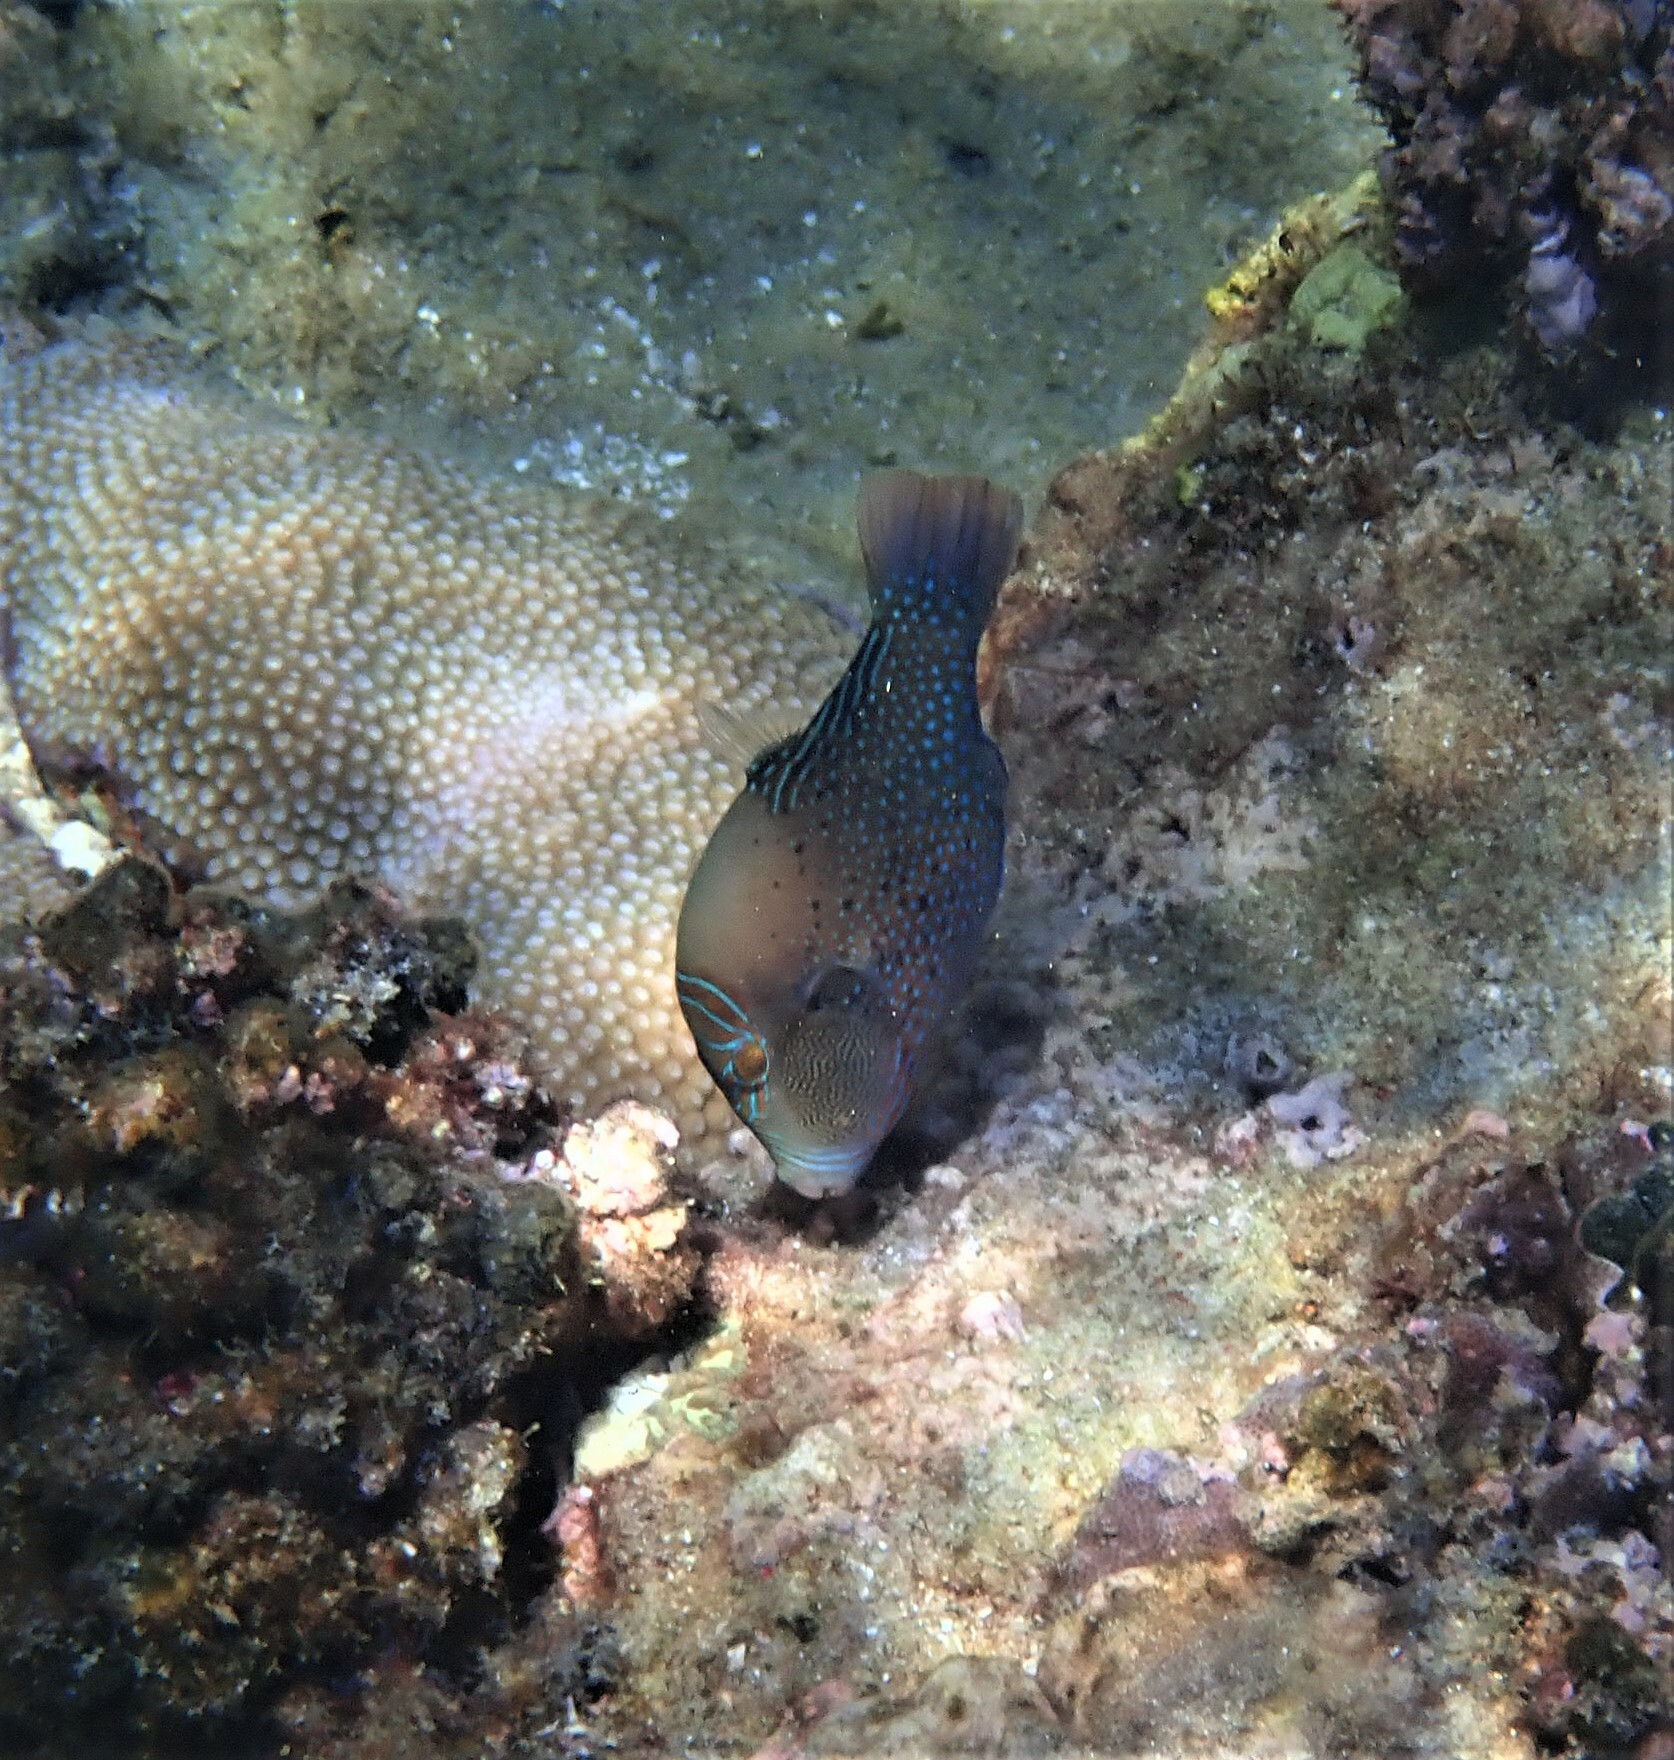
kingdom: Animalia
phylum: Chordata
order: Tetraodontiformes
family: Tetraodontidae
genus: Canthigaster
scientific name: Canthigaster amboinensis
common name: Ambon pufferfish
